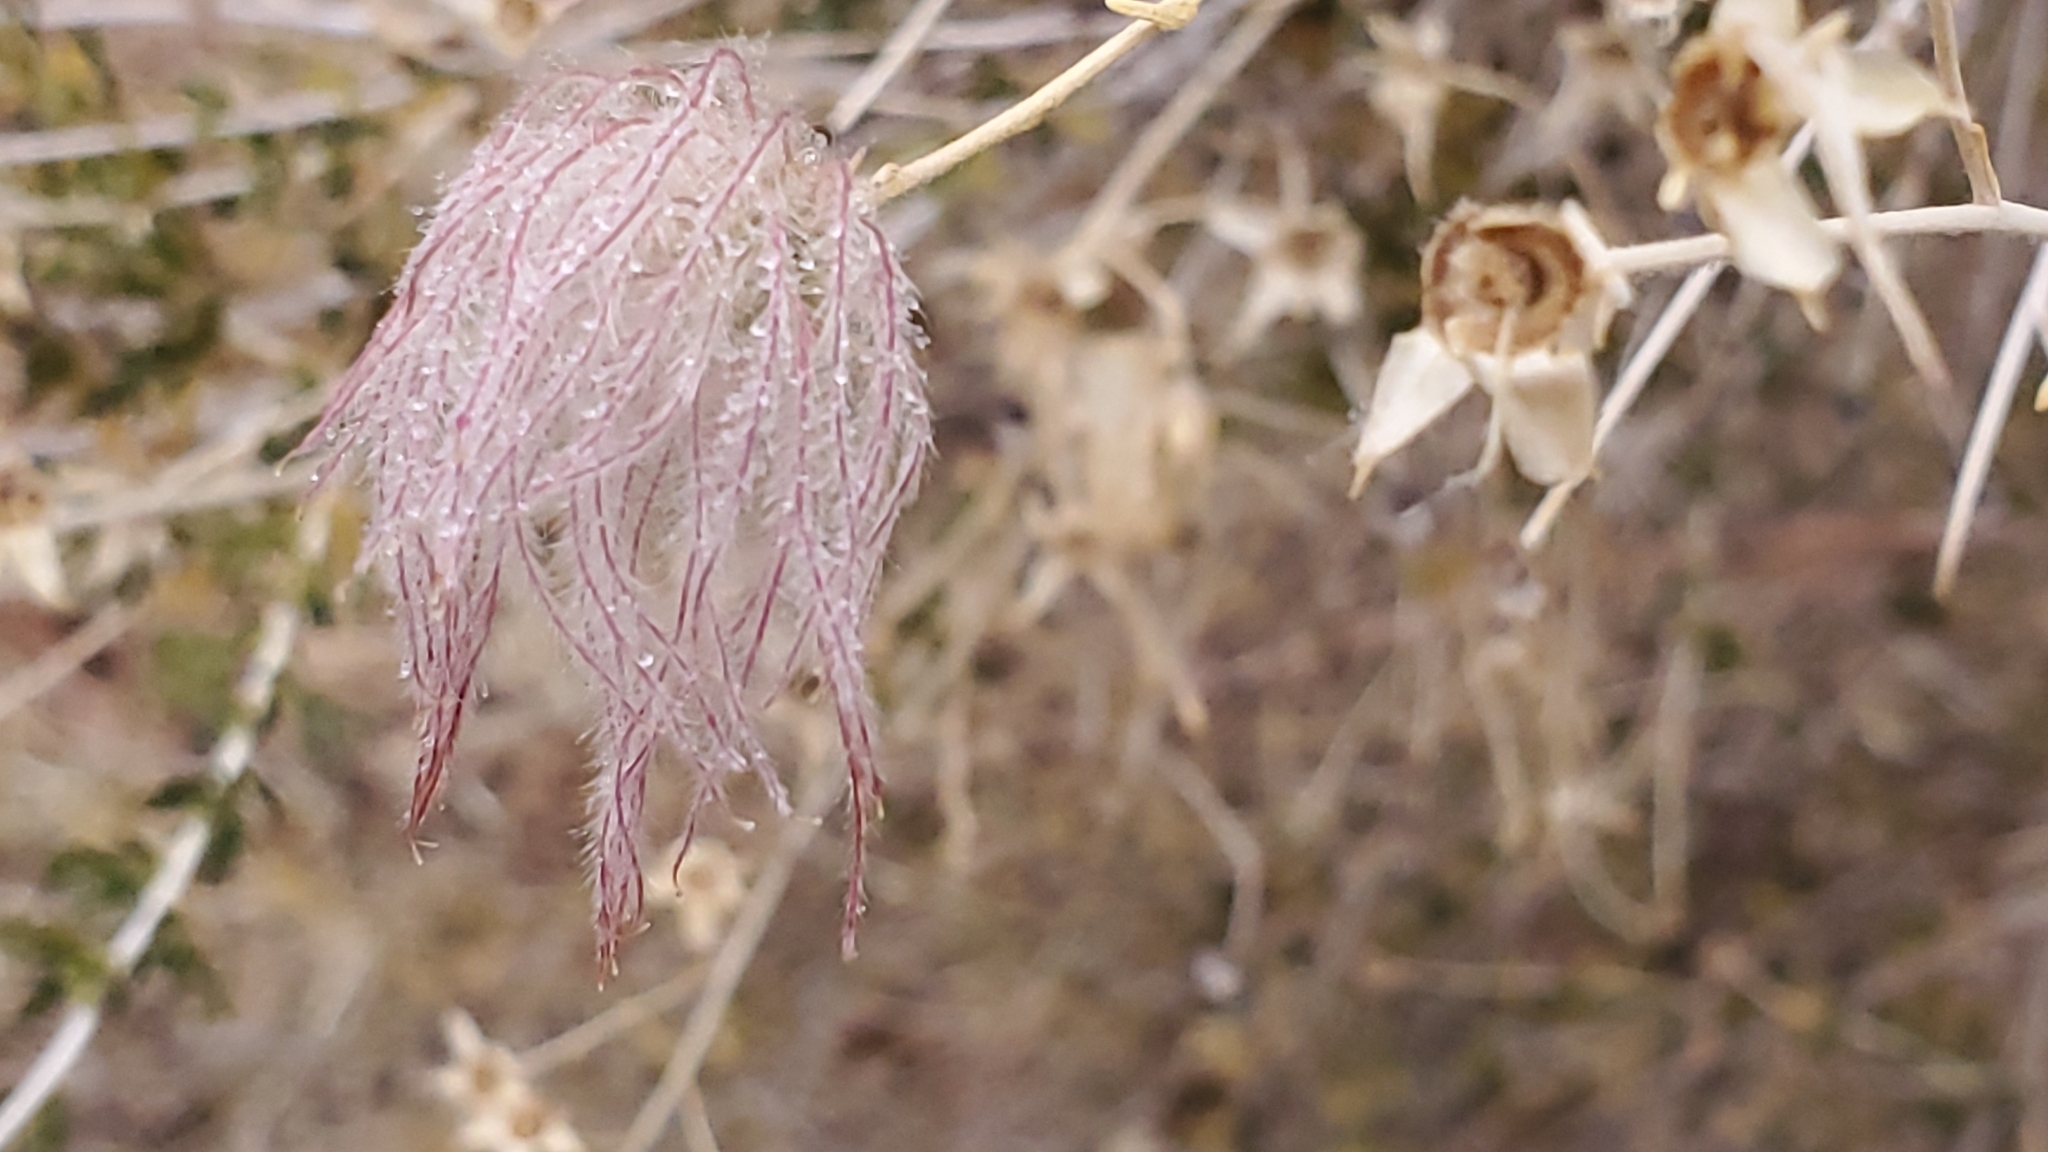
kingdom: Plantae
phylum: Tracheophyta
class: Magnoliopsida
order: Rosales
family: Rosaceae
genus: Fallugia
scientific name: Fallugia paradoxa
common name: Apache-plume
